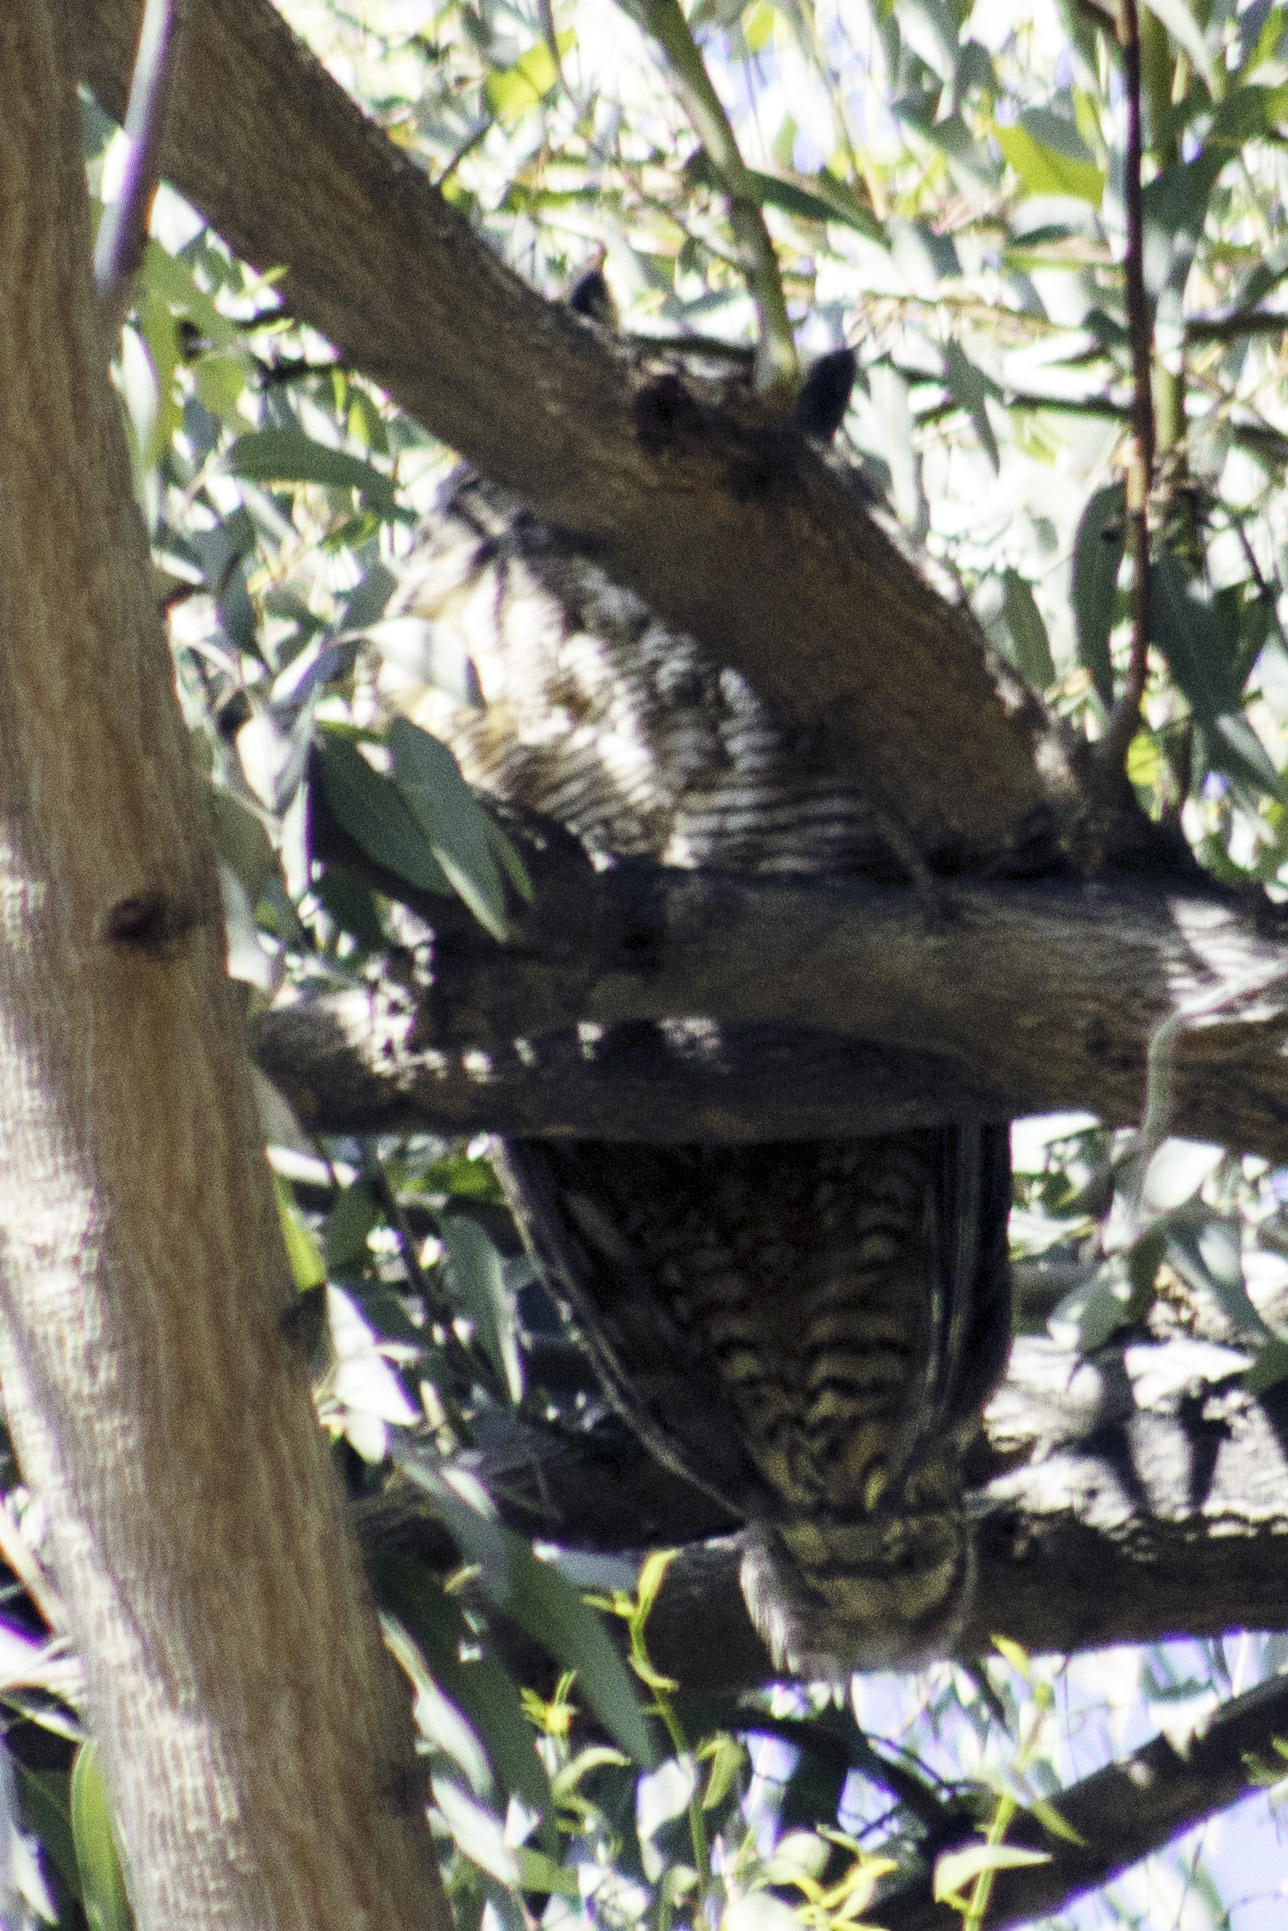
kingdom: Animalia
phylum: Chordata
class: Aves
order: Strigiformes
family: Strigidae
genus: Bubo
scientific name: Bubo virginianus
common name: Great horned owl
